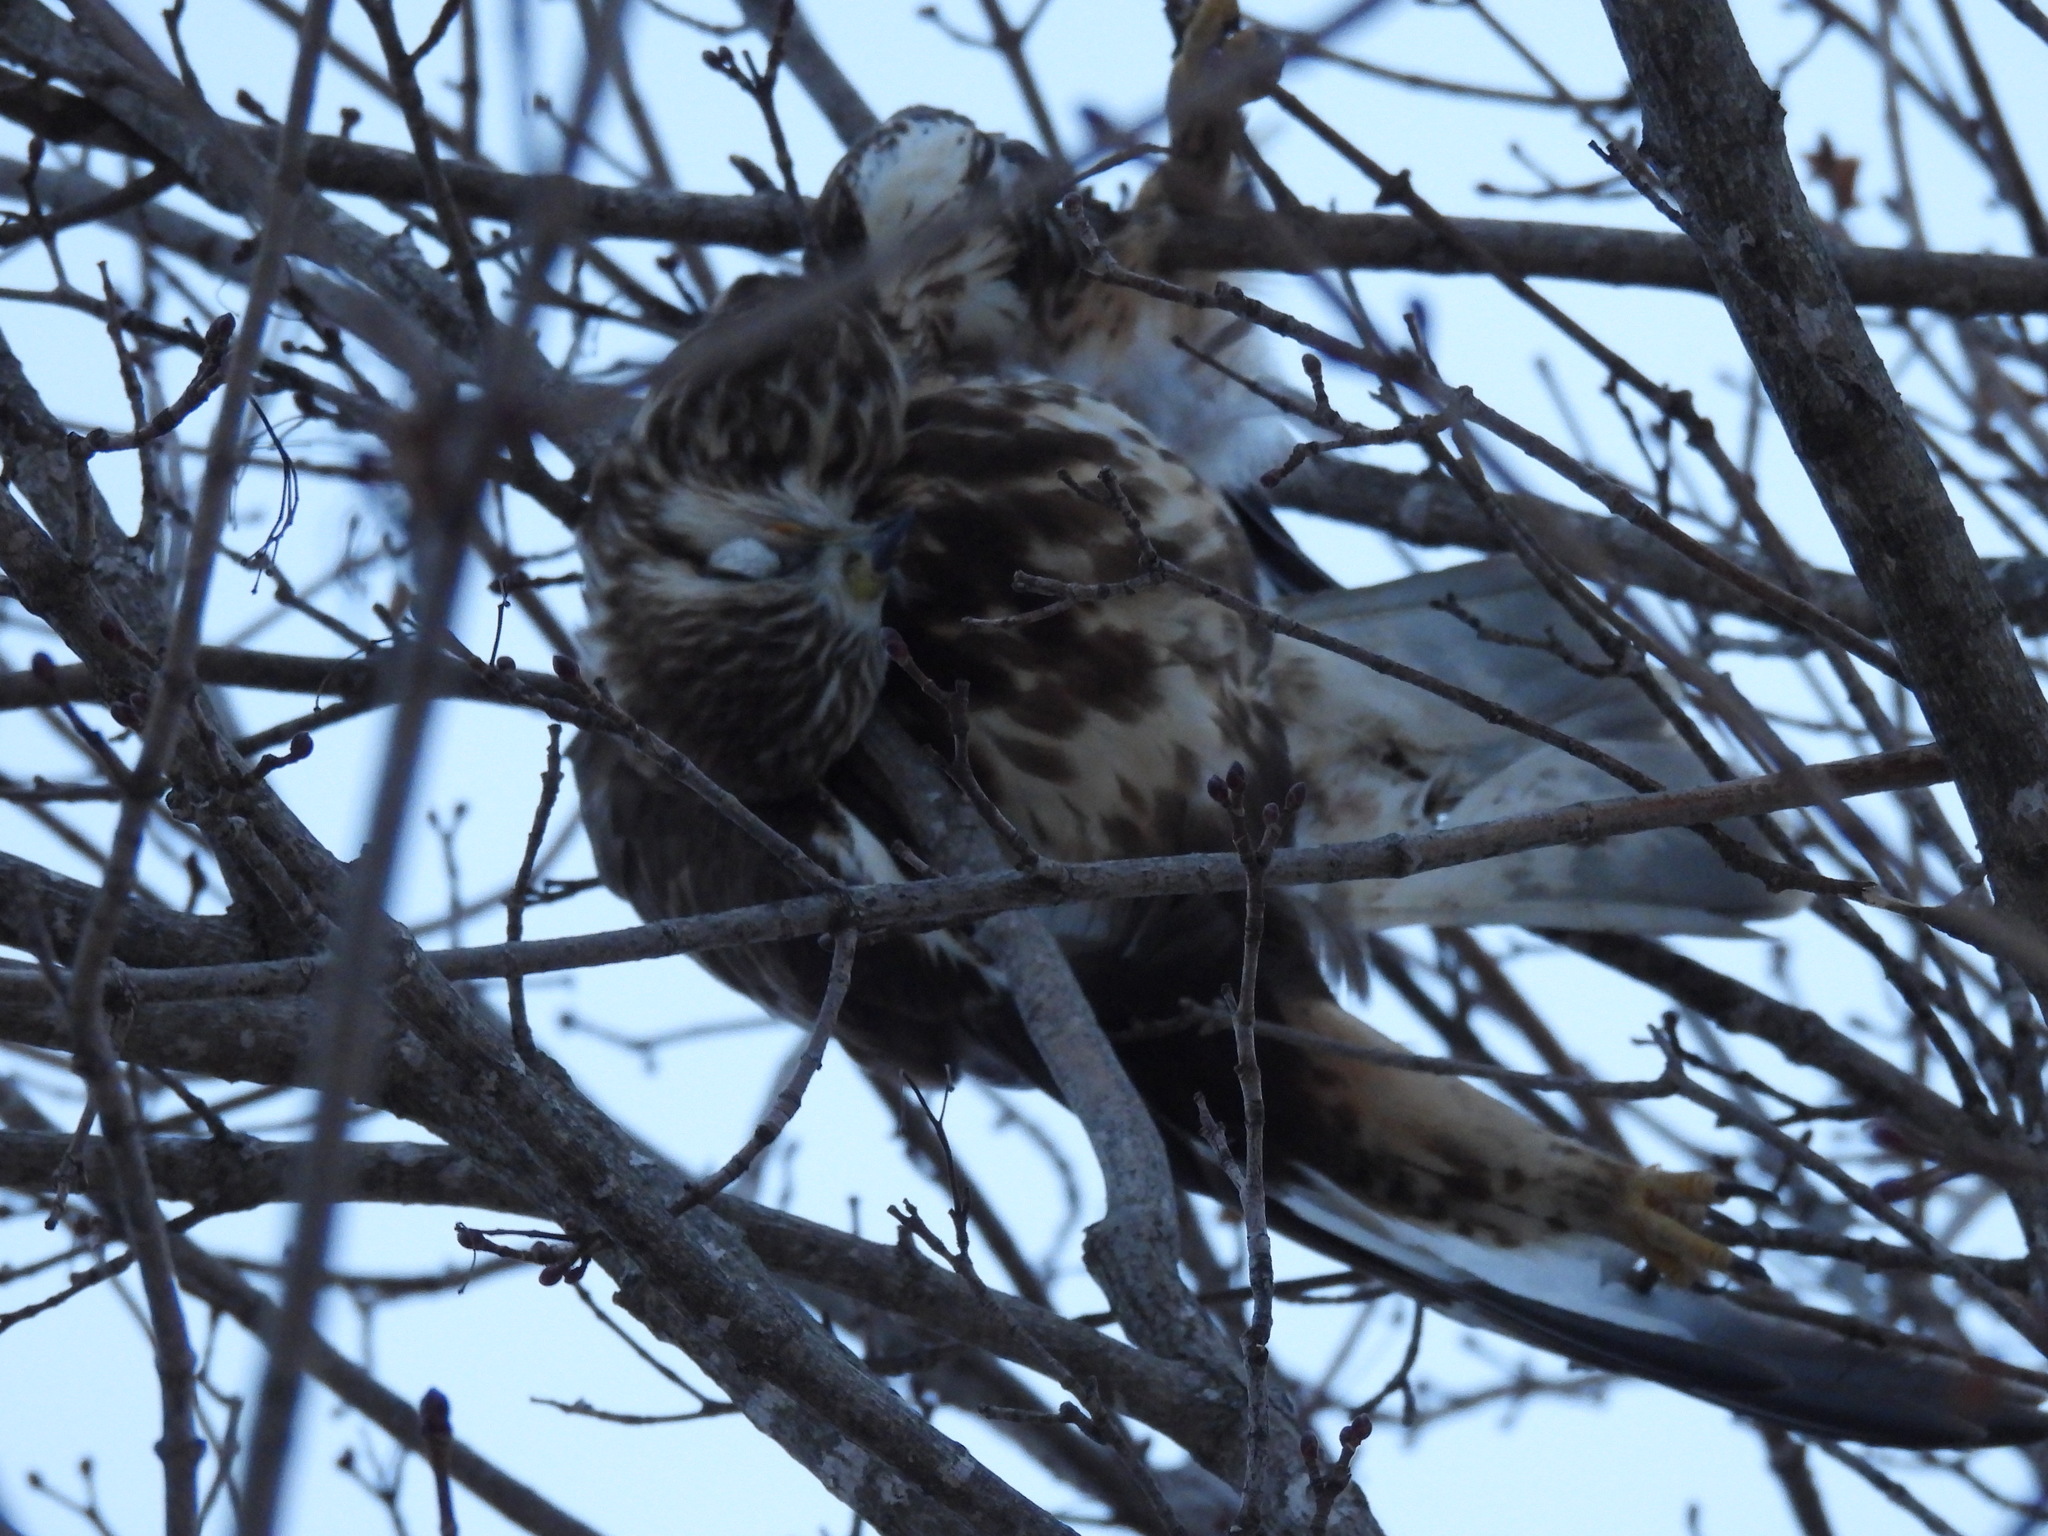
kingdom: Animalia
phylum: Chordata
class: Aves
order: Accipitriformes
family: Accipitridae
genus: Buteo
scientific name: Buteo lagopus
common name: Rough-legged buzzard
